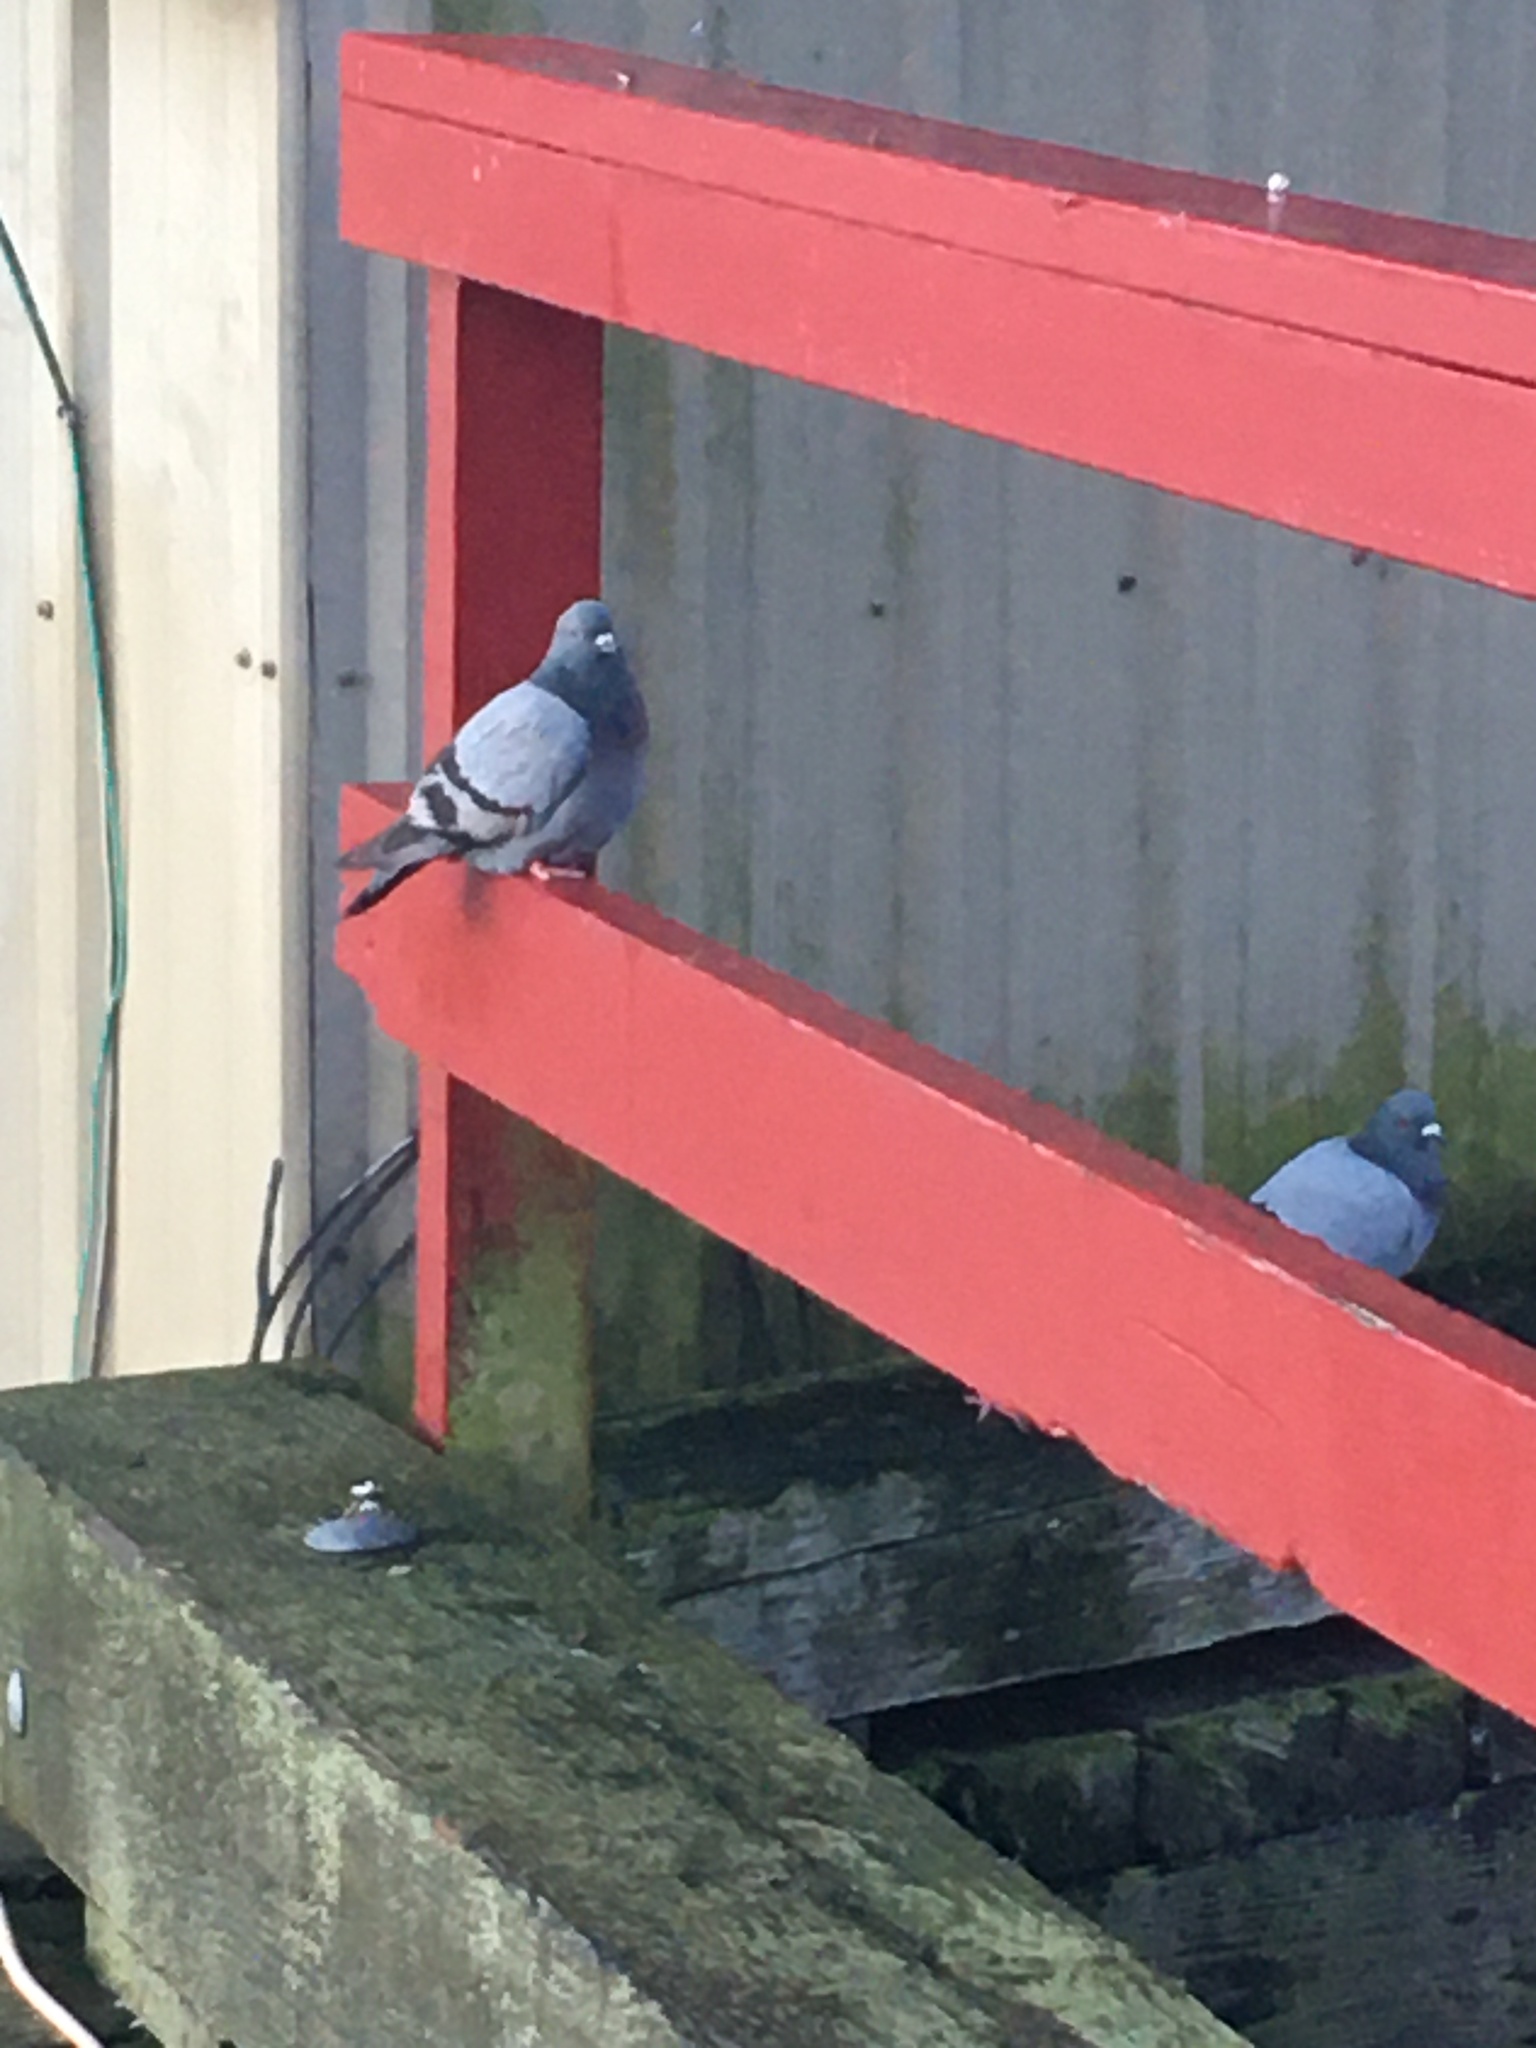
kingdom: Animalia
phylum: Chordata
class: Aves
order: Columbiformes
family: Columbidae
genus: Columba
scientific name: Columba livia
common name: Rock pigeon
